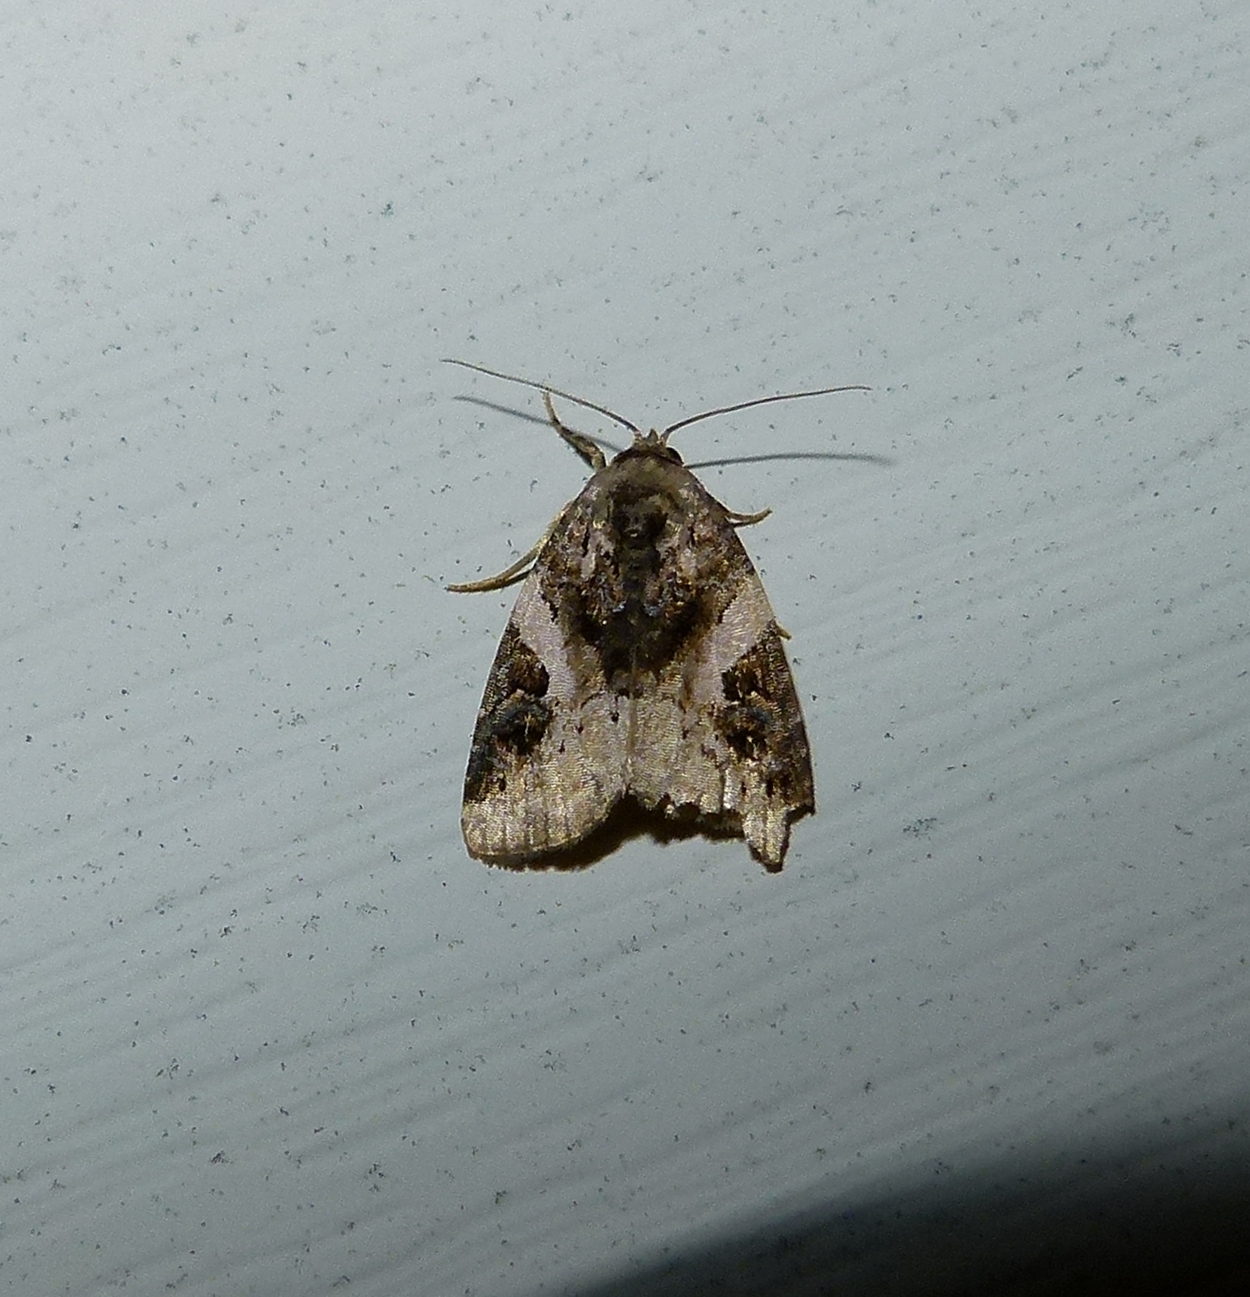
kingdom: Animalia
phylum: Arthropoda
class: Insecta
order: Lepidoptera
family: Noctuidae
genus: Pseudeustrotia
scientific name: Pseudeustrotia carneola
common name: Pink-barred lithacodia moth
